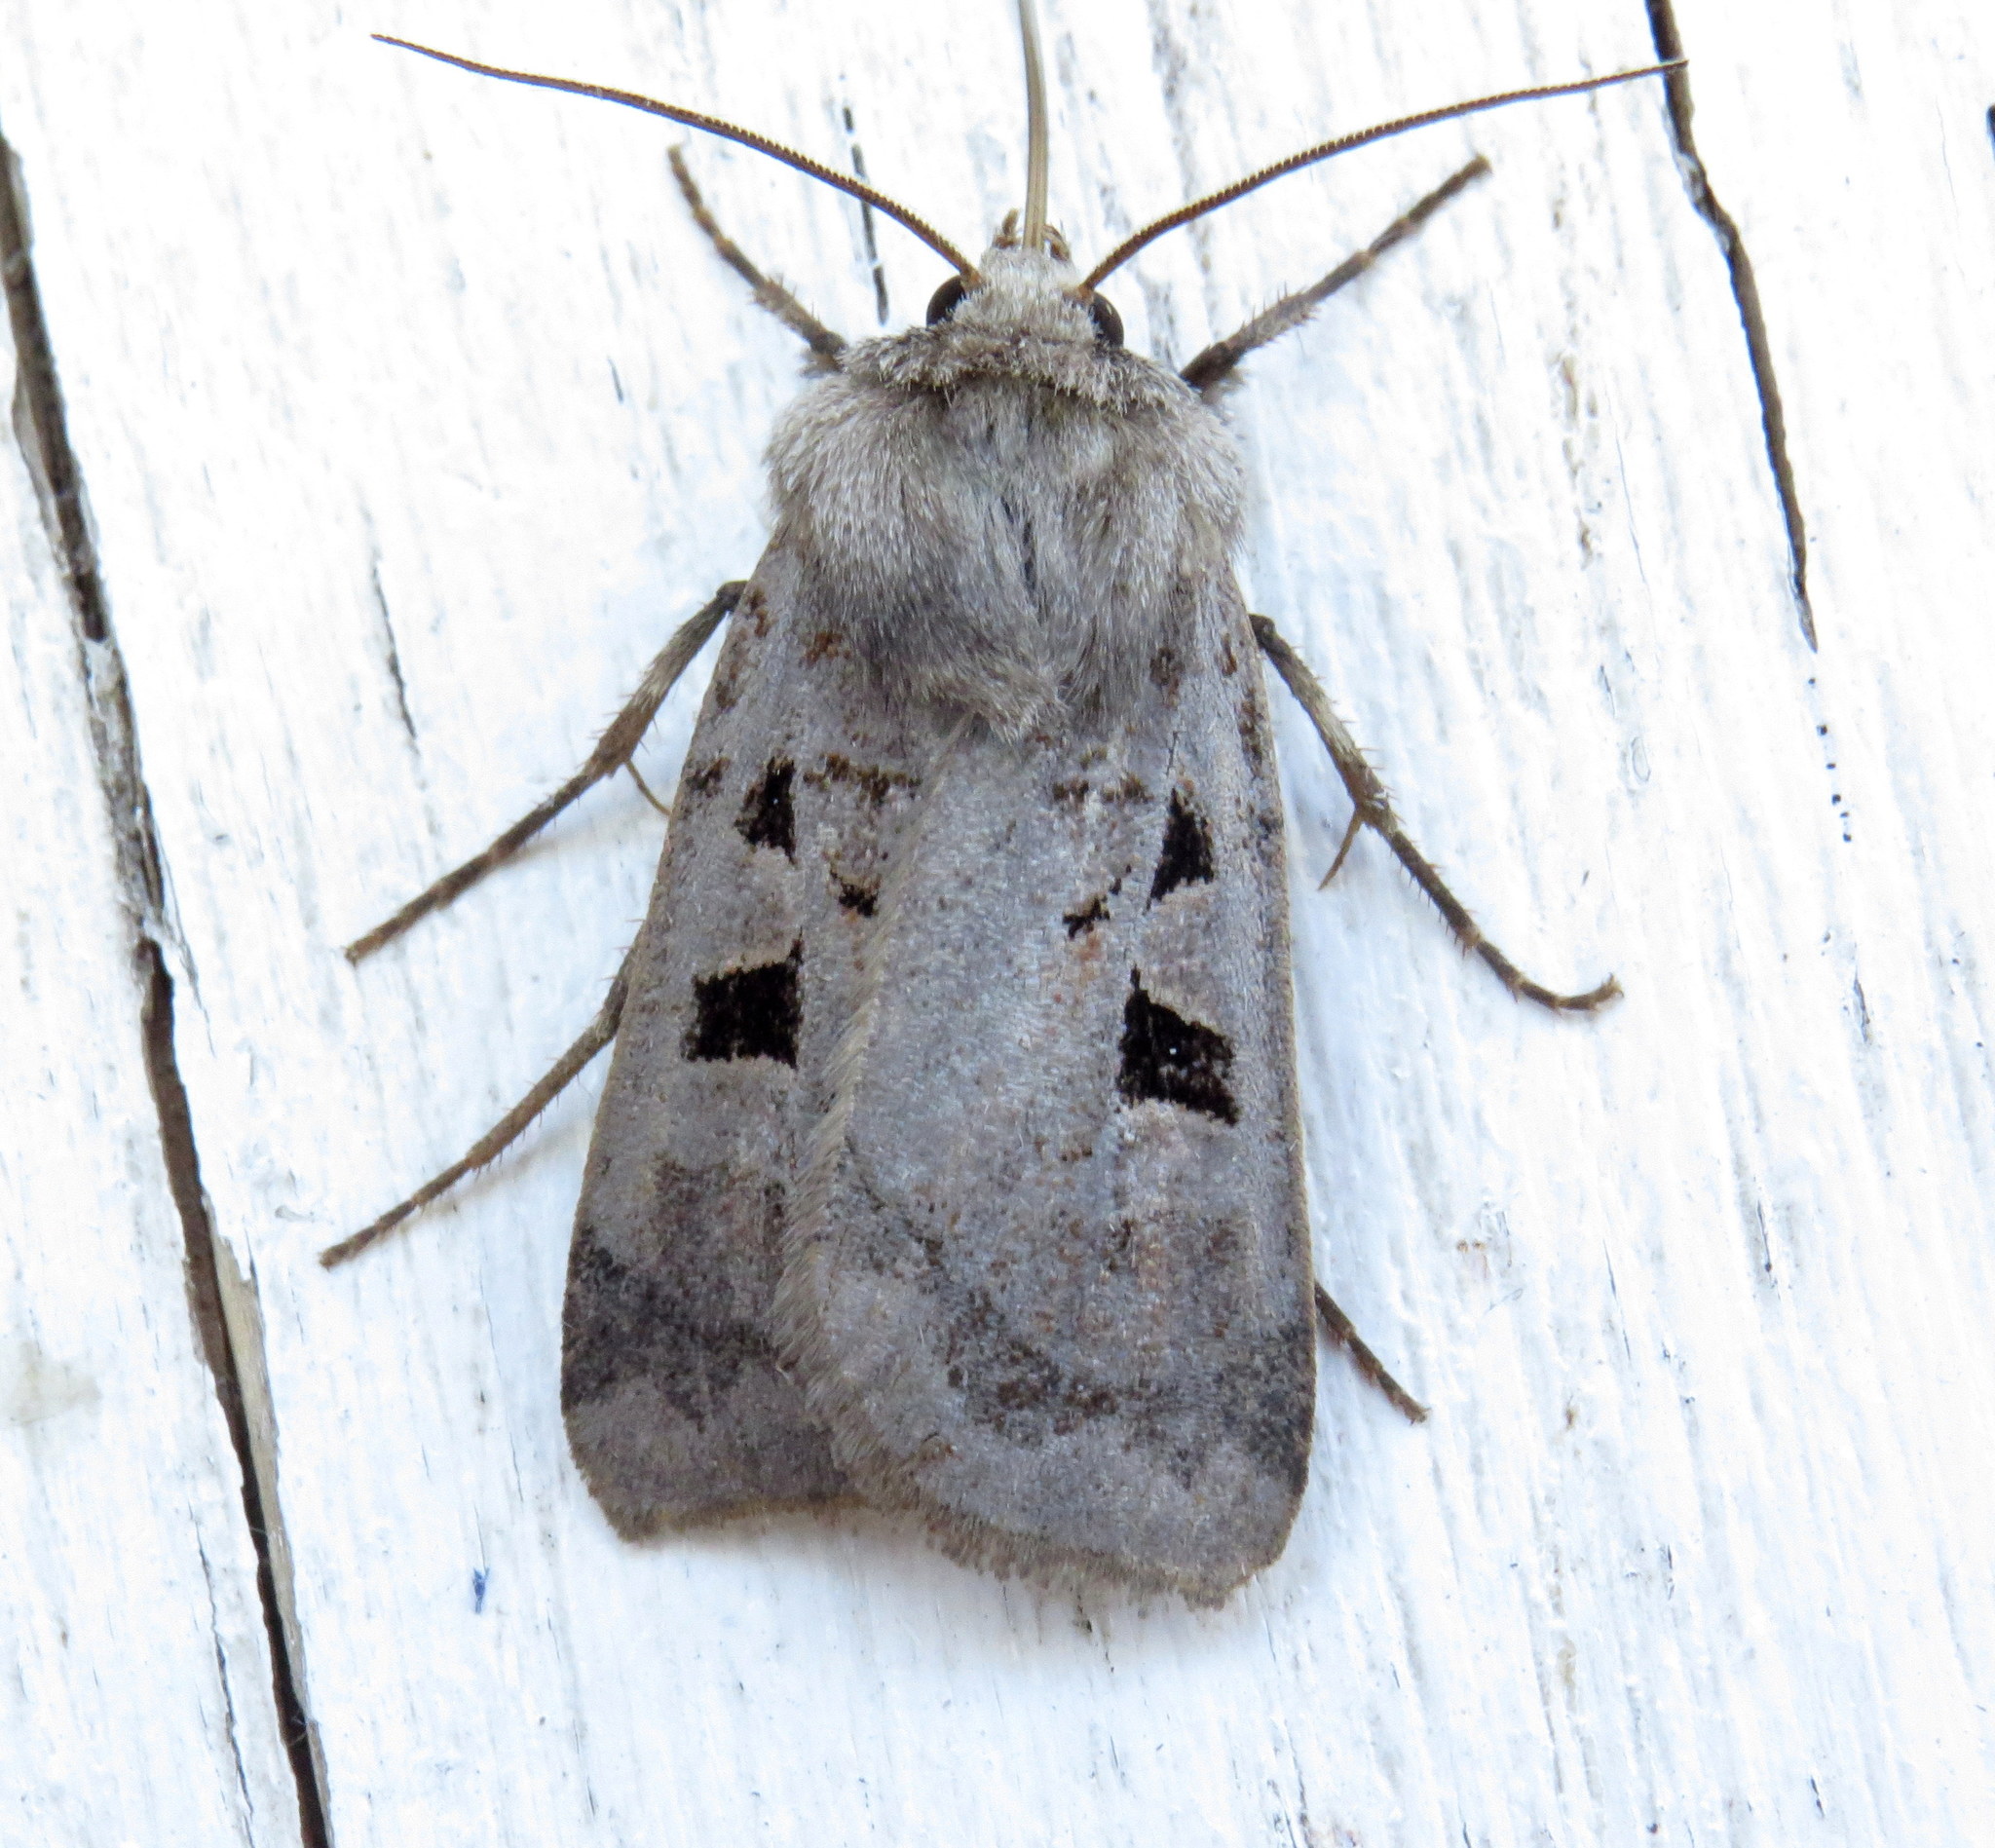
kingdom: Animalia
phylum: Arthropoda
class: Insecta
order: Lepidoptera
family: Noctuidae
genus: Feltia
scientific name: Feltia mollis
